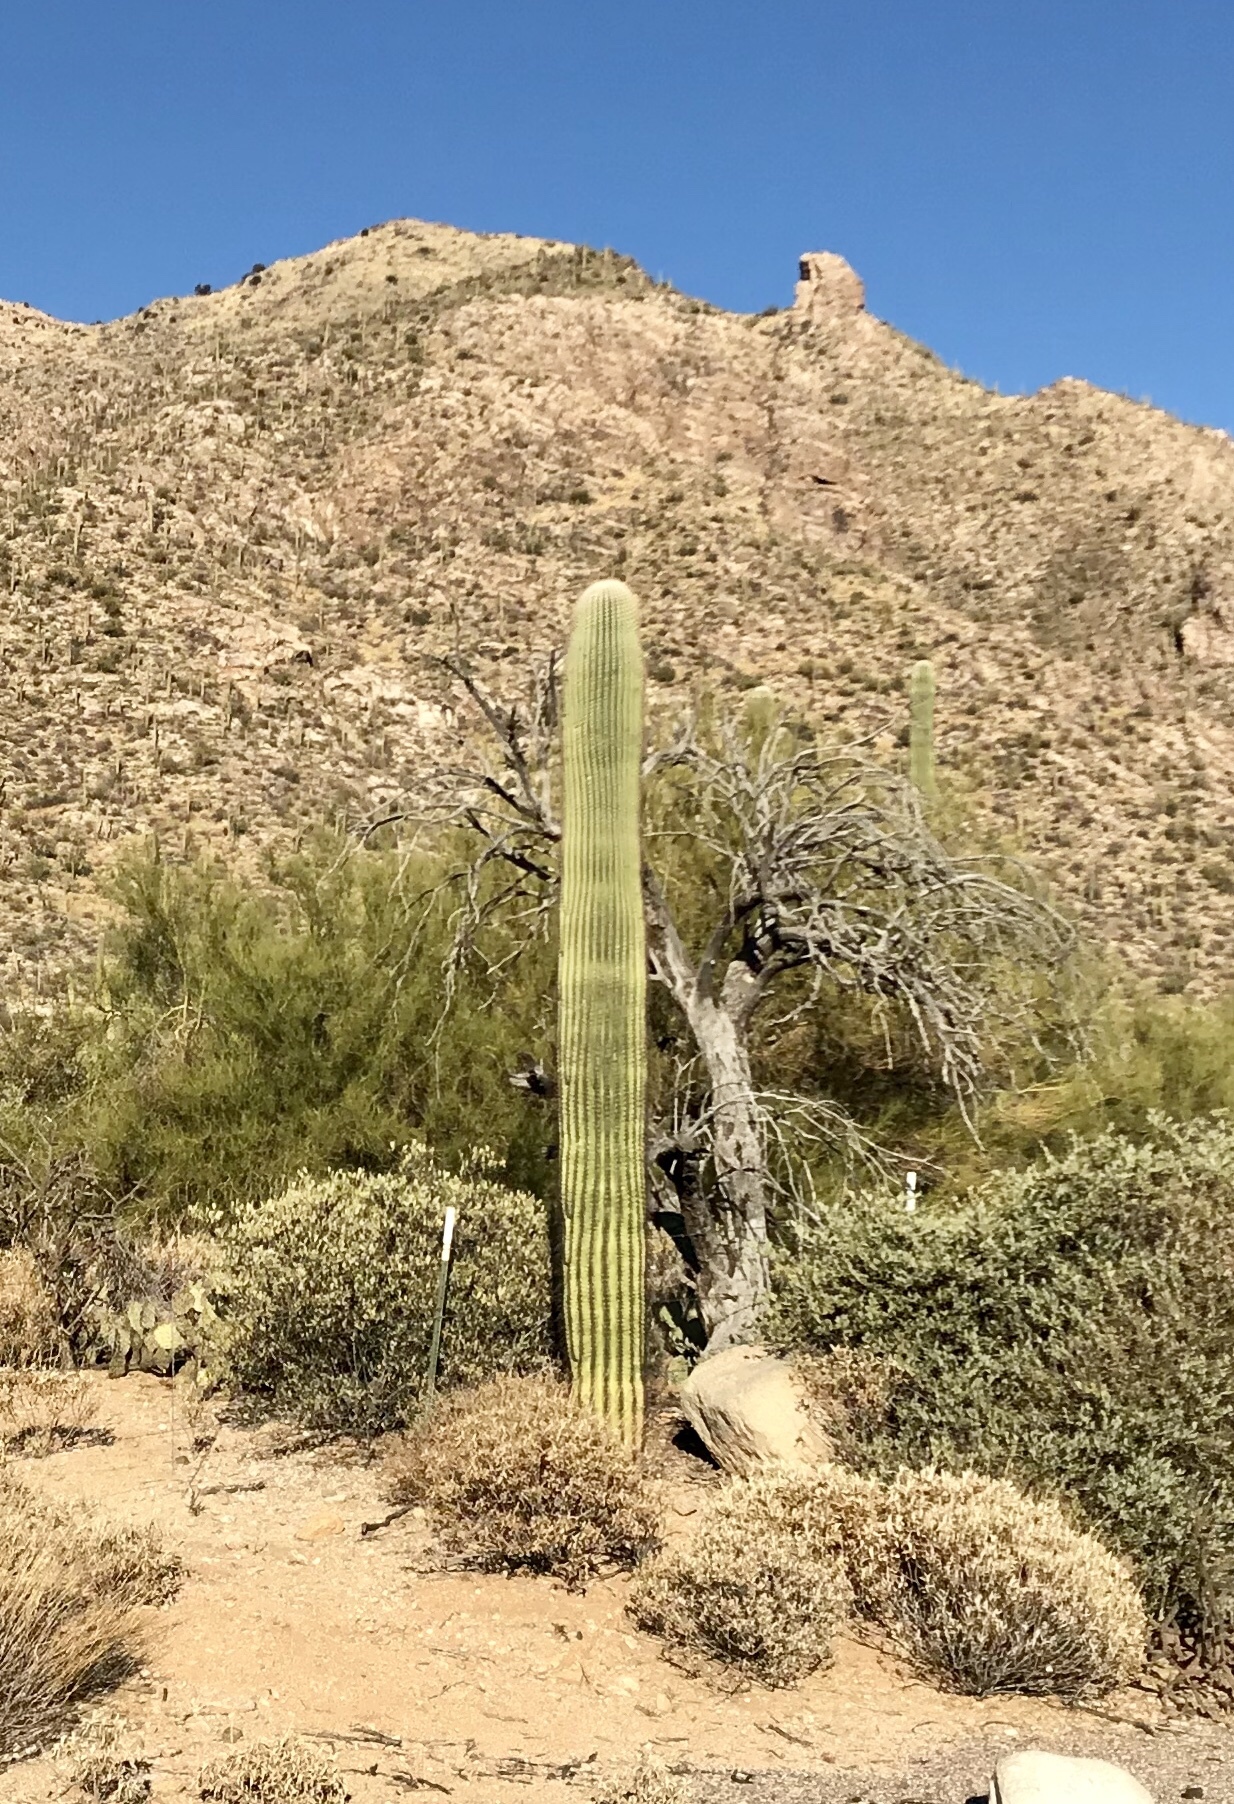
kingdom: Plantae
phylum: Tracheophyta
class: Magnoliopsida
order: Caryophyllales
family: Cactaceae
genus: Carnegiea
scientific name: Carnegiea gigantea
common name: Saguaro
